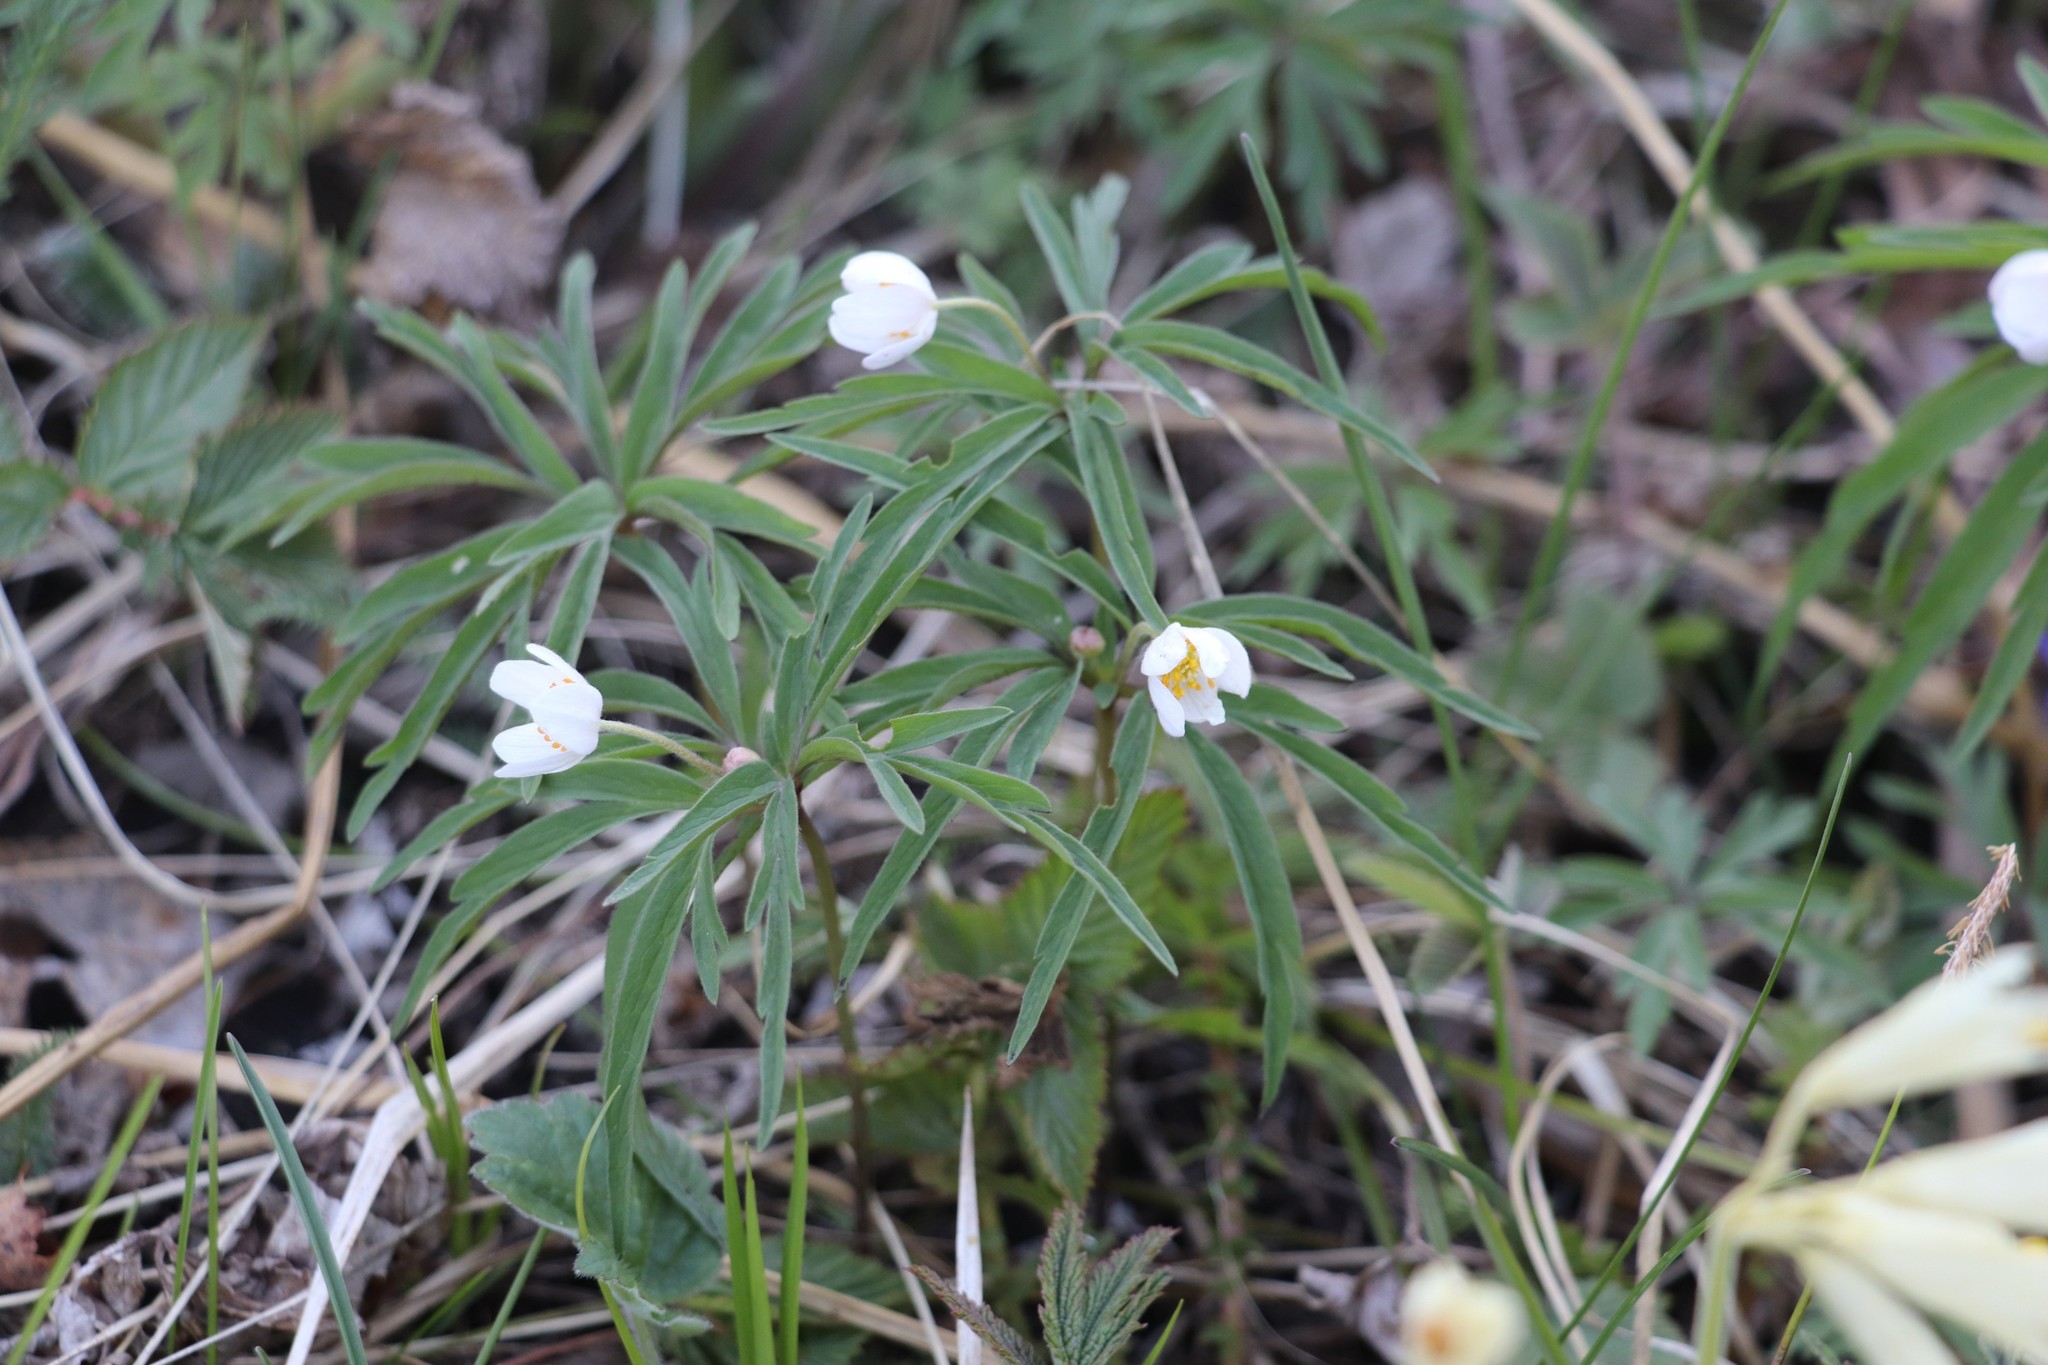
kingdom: Plantae
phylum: Tracheophyta
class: Magnoliopsida
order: Ranunculales
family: Ranunculaceae
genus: Anemone
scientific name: Anemone caerulea
